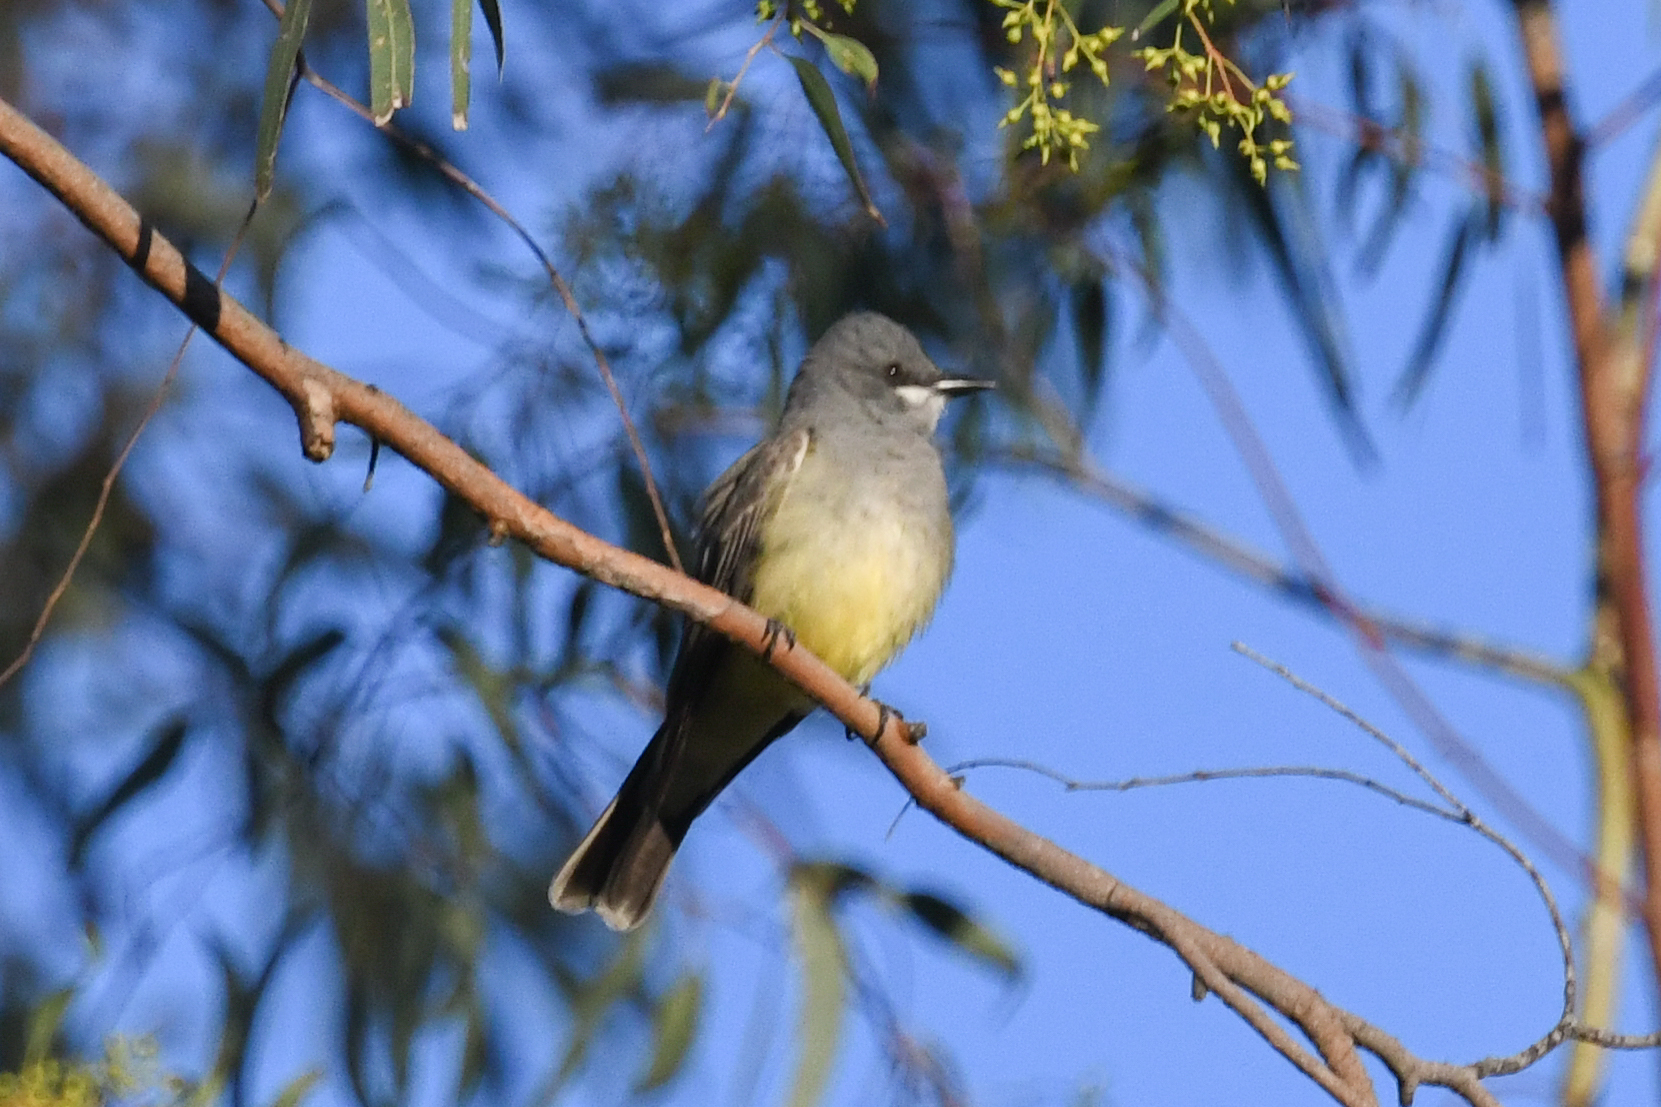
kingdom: Animalia
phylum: Chordata
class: Aves
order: Passeriformes
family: Tyrannidae
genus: Tyrannus
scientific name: Tyrannus vociferans
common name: Cassin's kingbird
